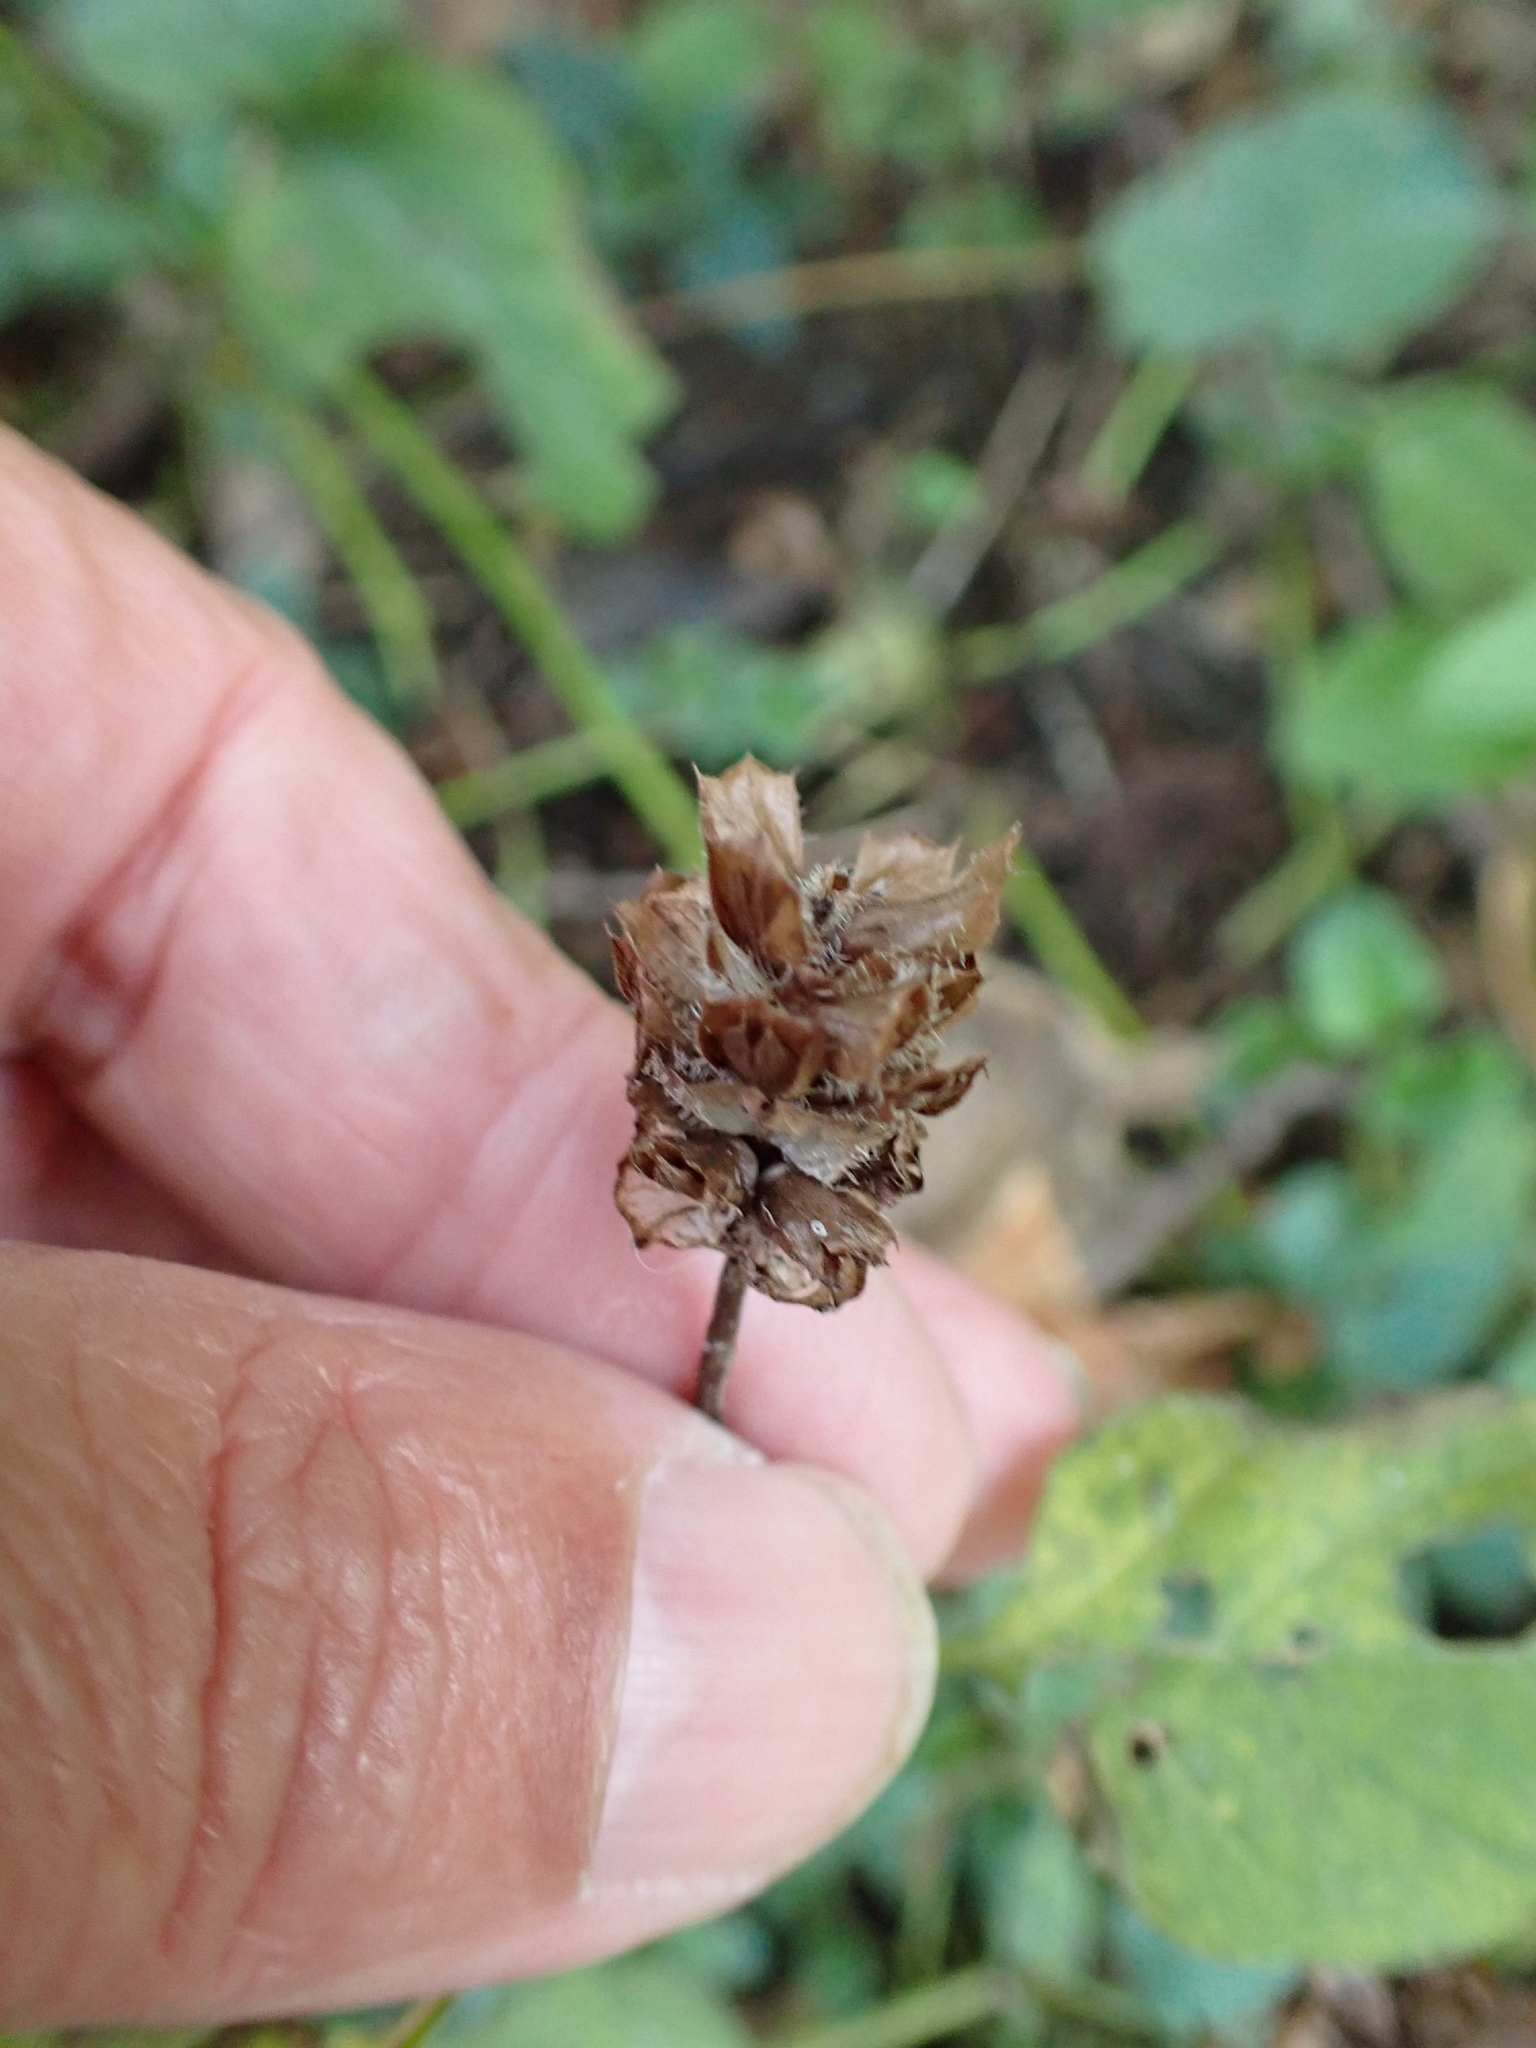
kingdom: Plantae
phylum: Tracheophyta
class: Magnoliopsida
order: Lamiales
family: Lamiaceae
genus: Prunella
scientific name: Prunella vulgaris
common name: Heal-all
